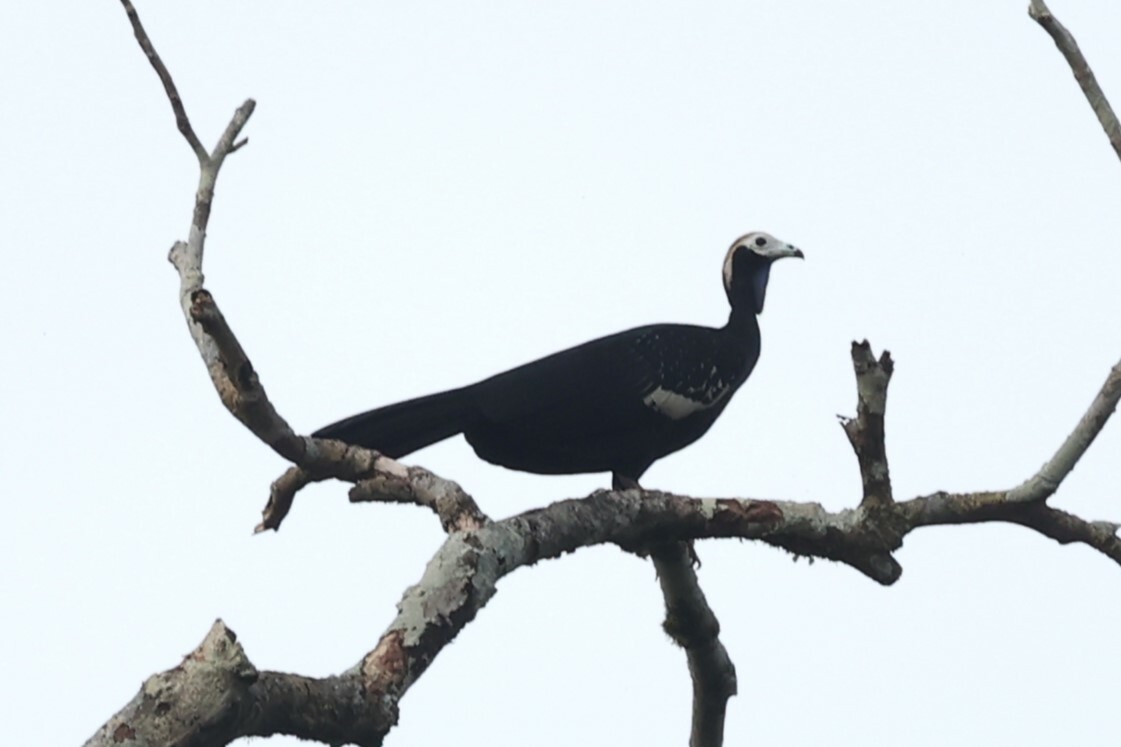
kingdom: Animalia
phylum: Chordata
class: Aves
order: Galliformes
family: Cracidae
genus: Pipile
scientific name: Pipile cumanensis
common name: Blue-throated piping-guan
